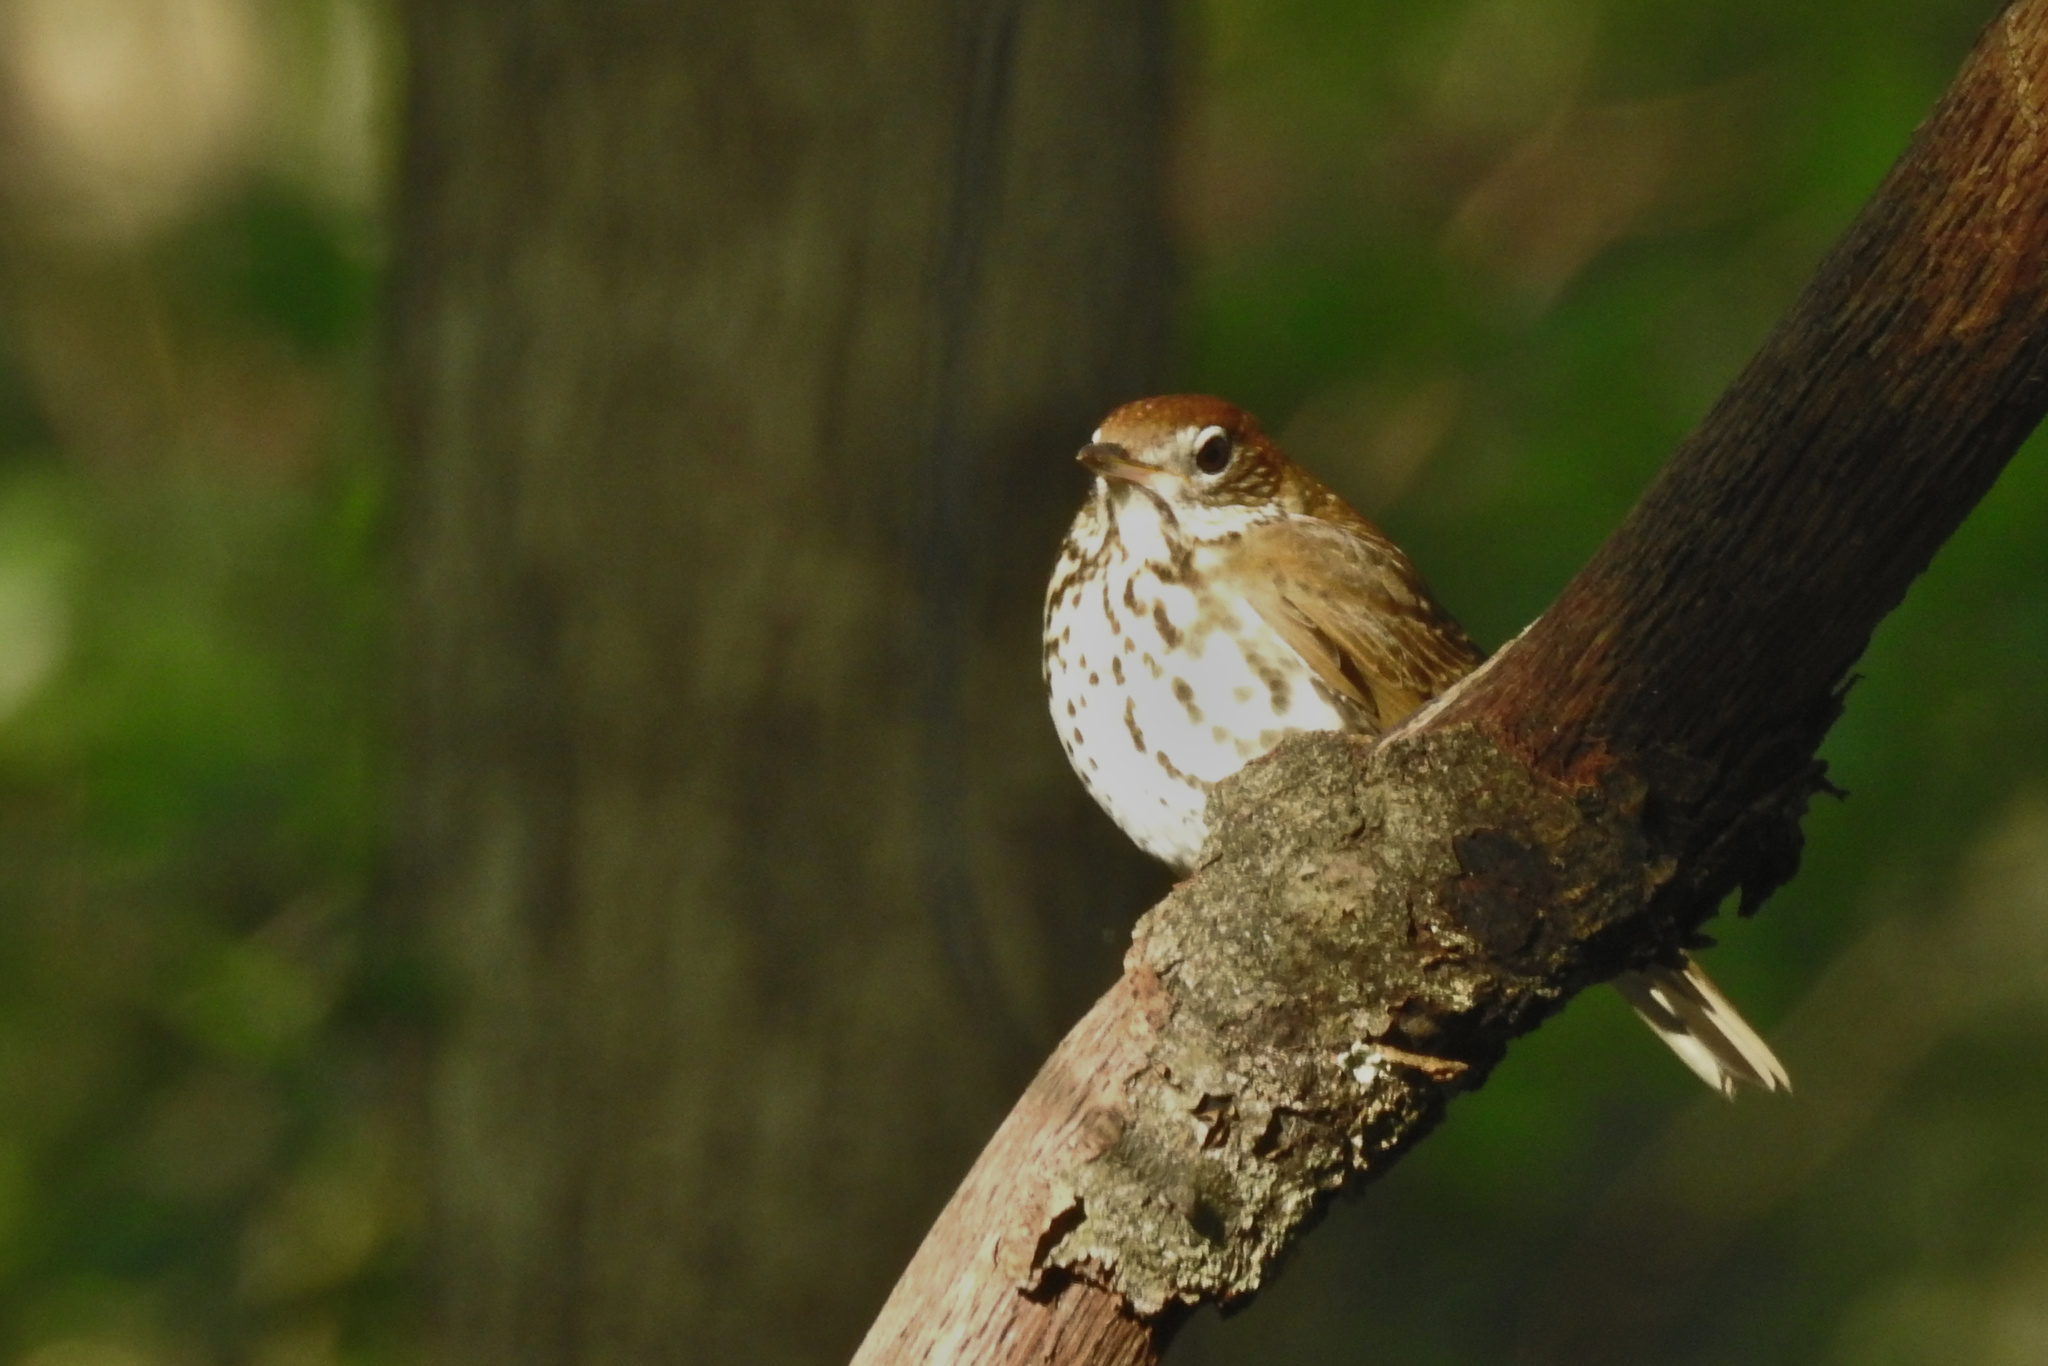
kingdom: Animalia
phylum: Chordata
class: Aves
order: Passeriformes
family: Turdidae
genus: Hylocichla
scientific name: Hylocichla mustelina
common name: Wood thrush
